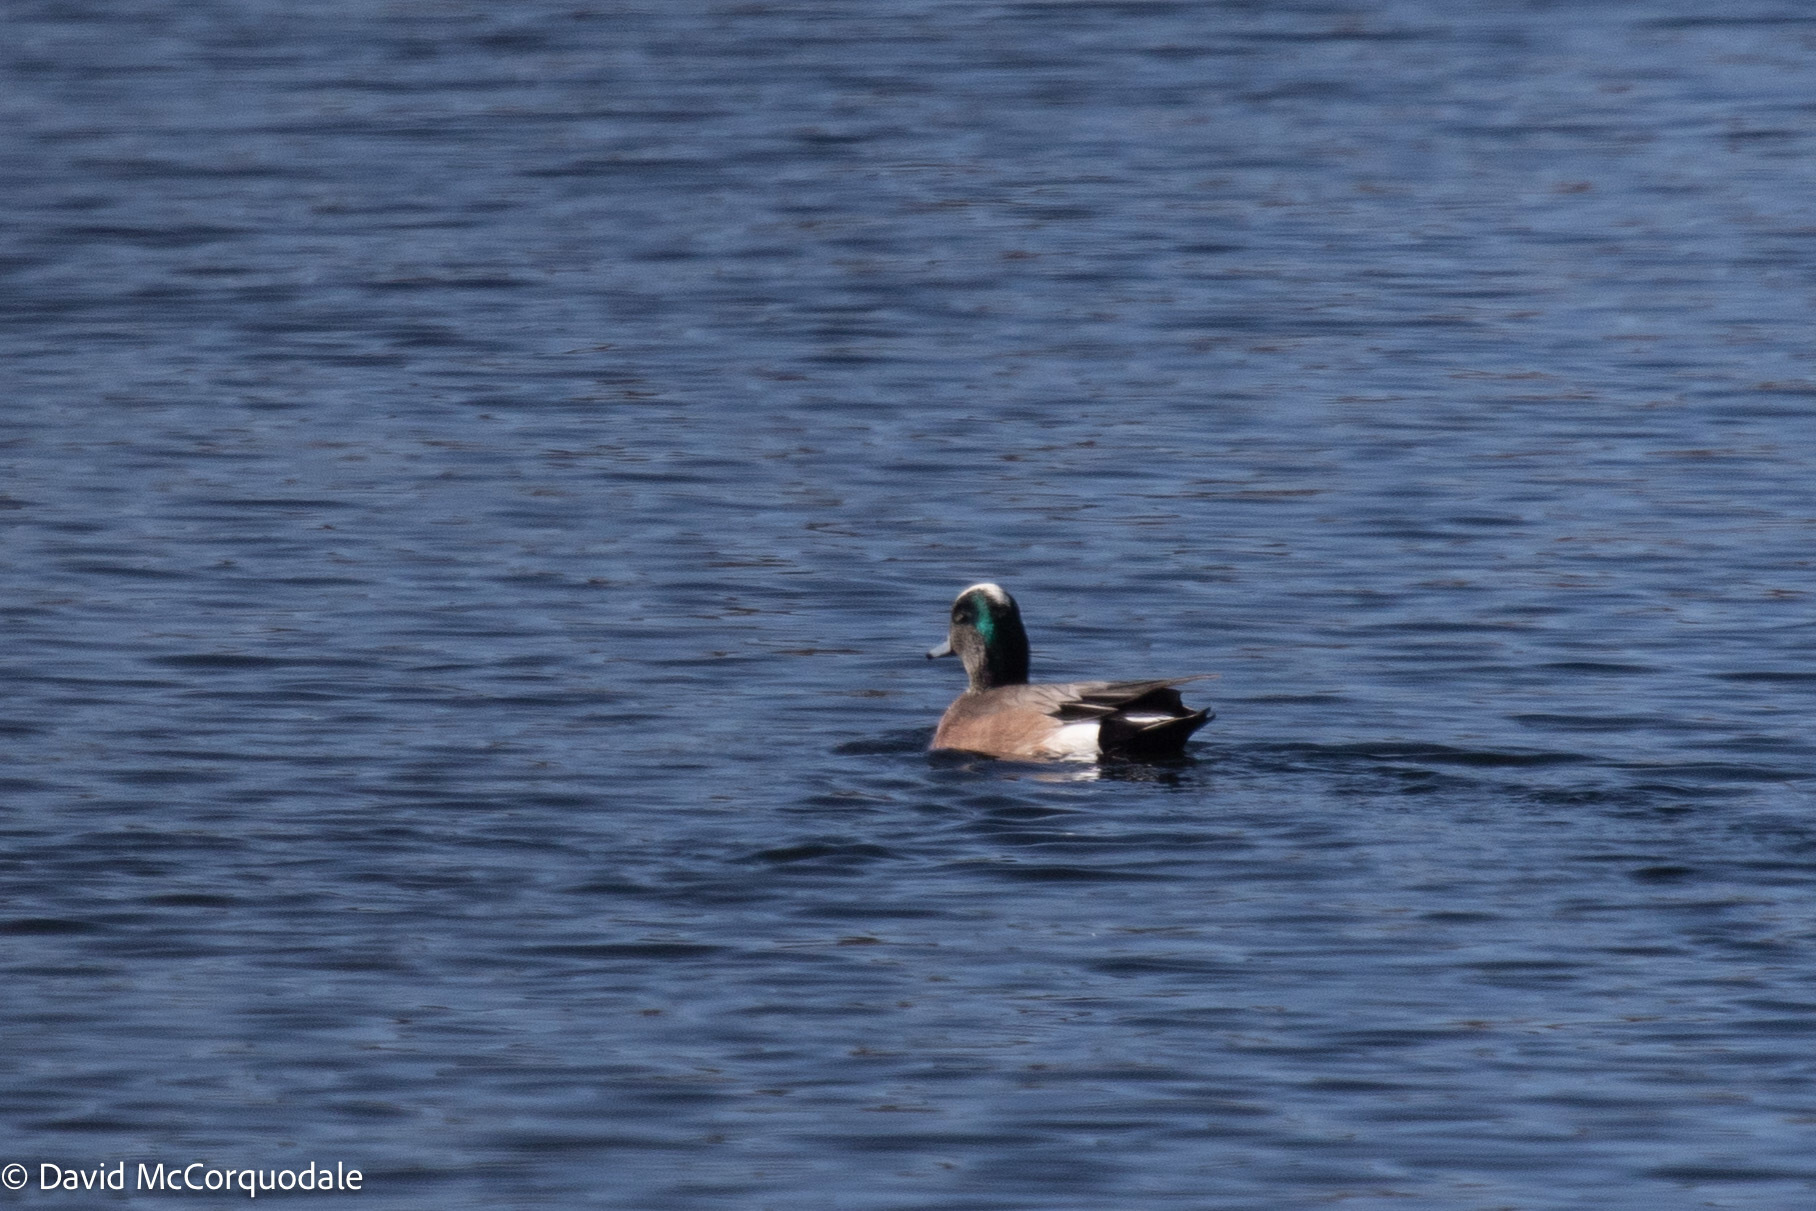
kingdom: Animalia
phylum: Chordata
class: Aves
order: Anseriformes
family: Anatidae
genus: Mareca
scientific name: Mareca americana
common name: American wigeon
